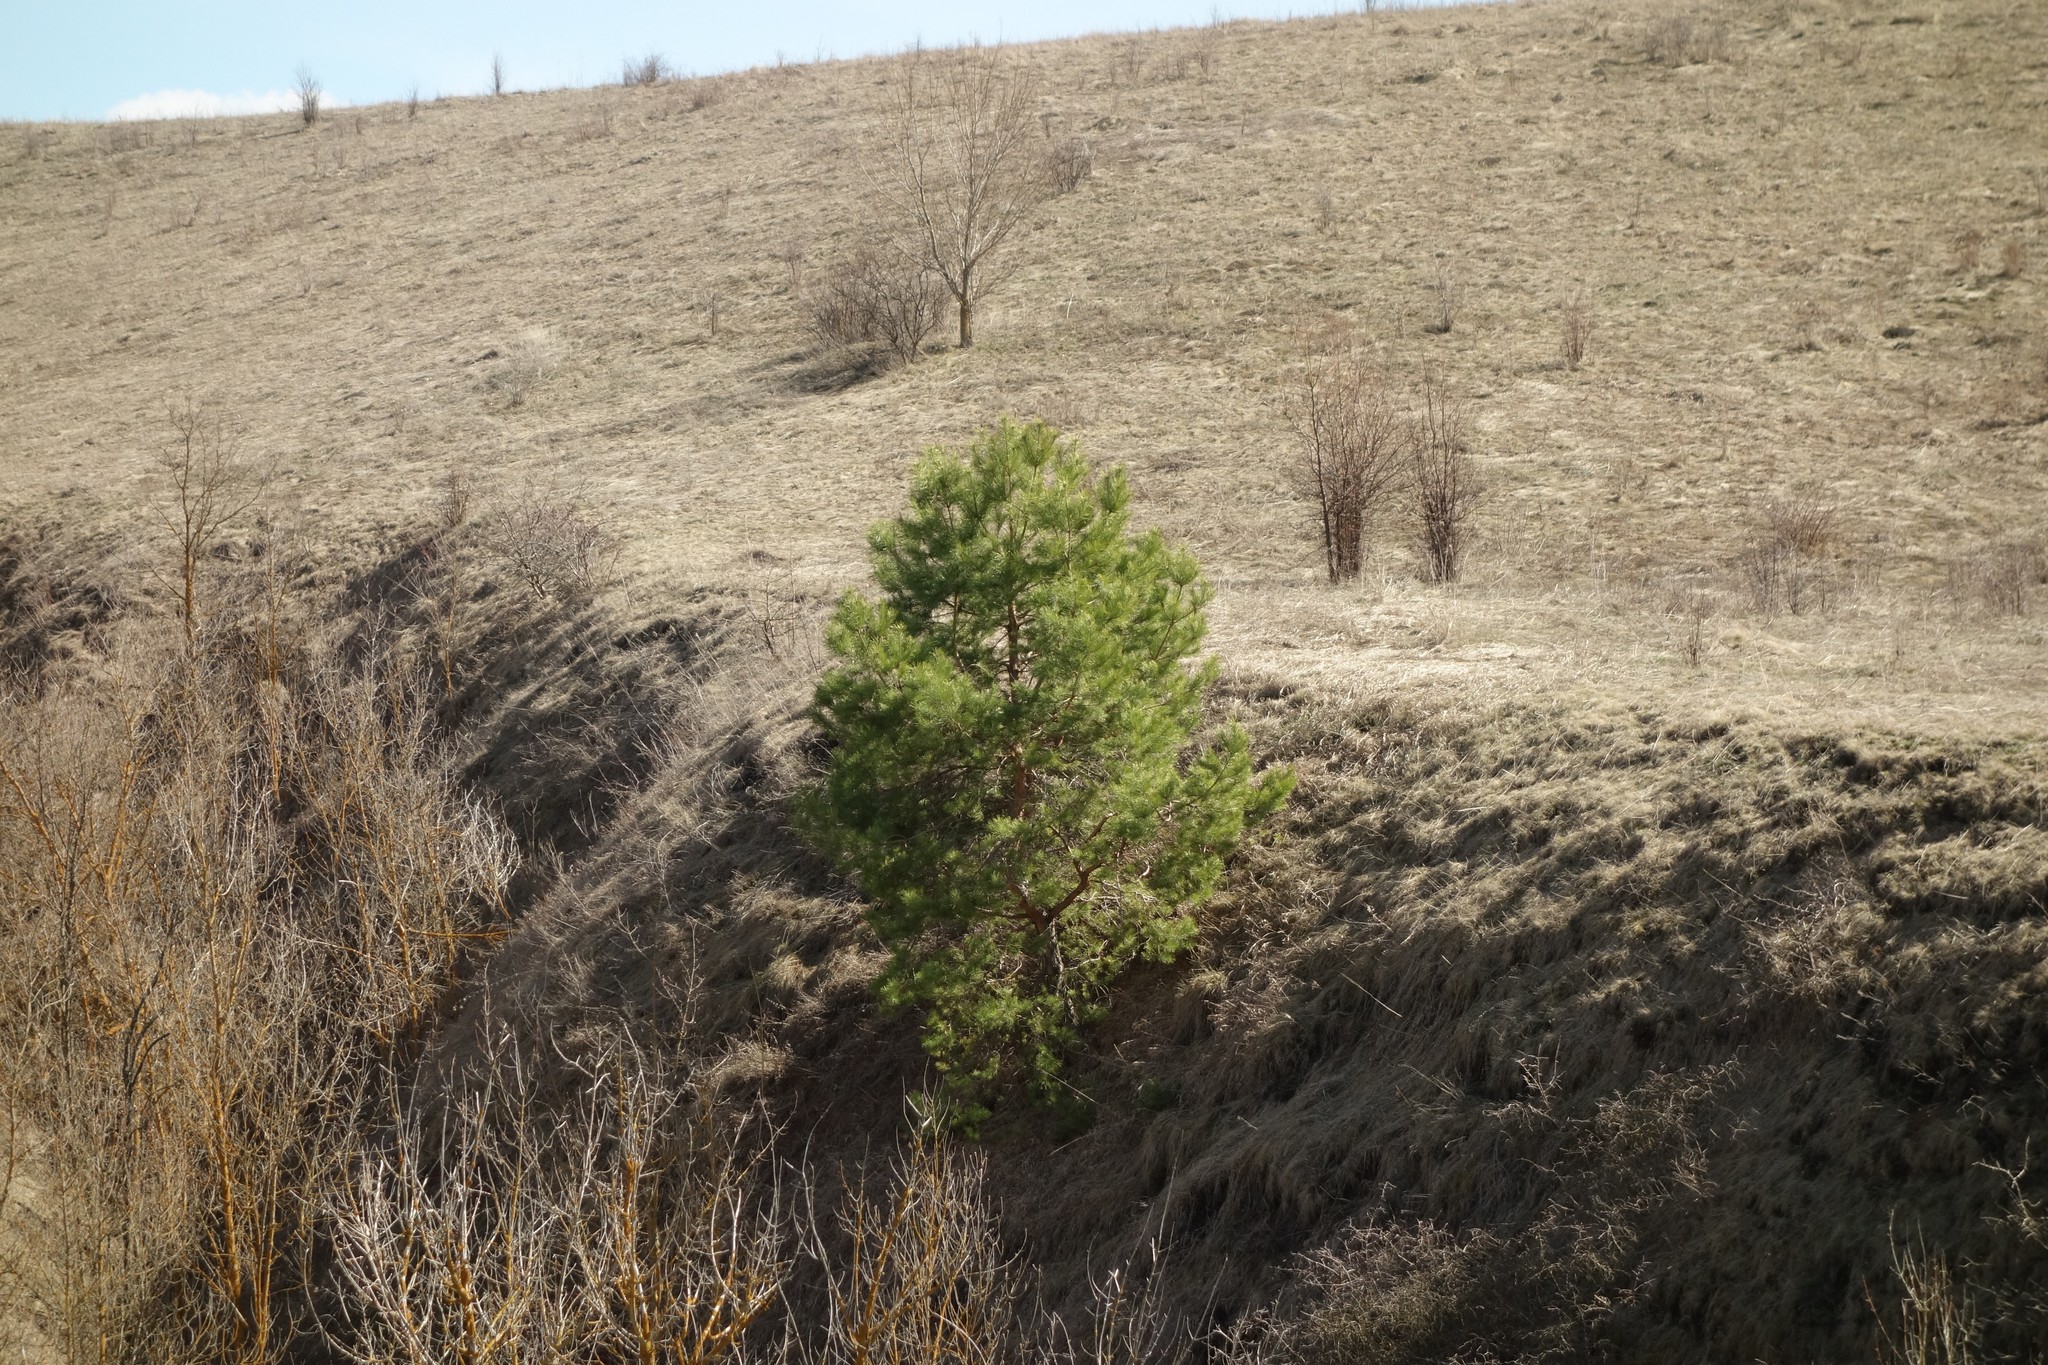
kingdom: Plantae
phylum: Tracheophyta
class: Pinopsida
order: Pinales
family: Pinaceae
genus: Pinus
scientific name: Pinus sylvestris
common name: Scots pine
